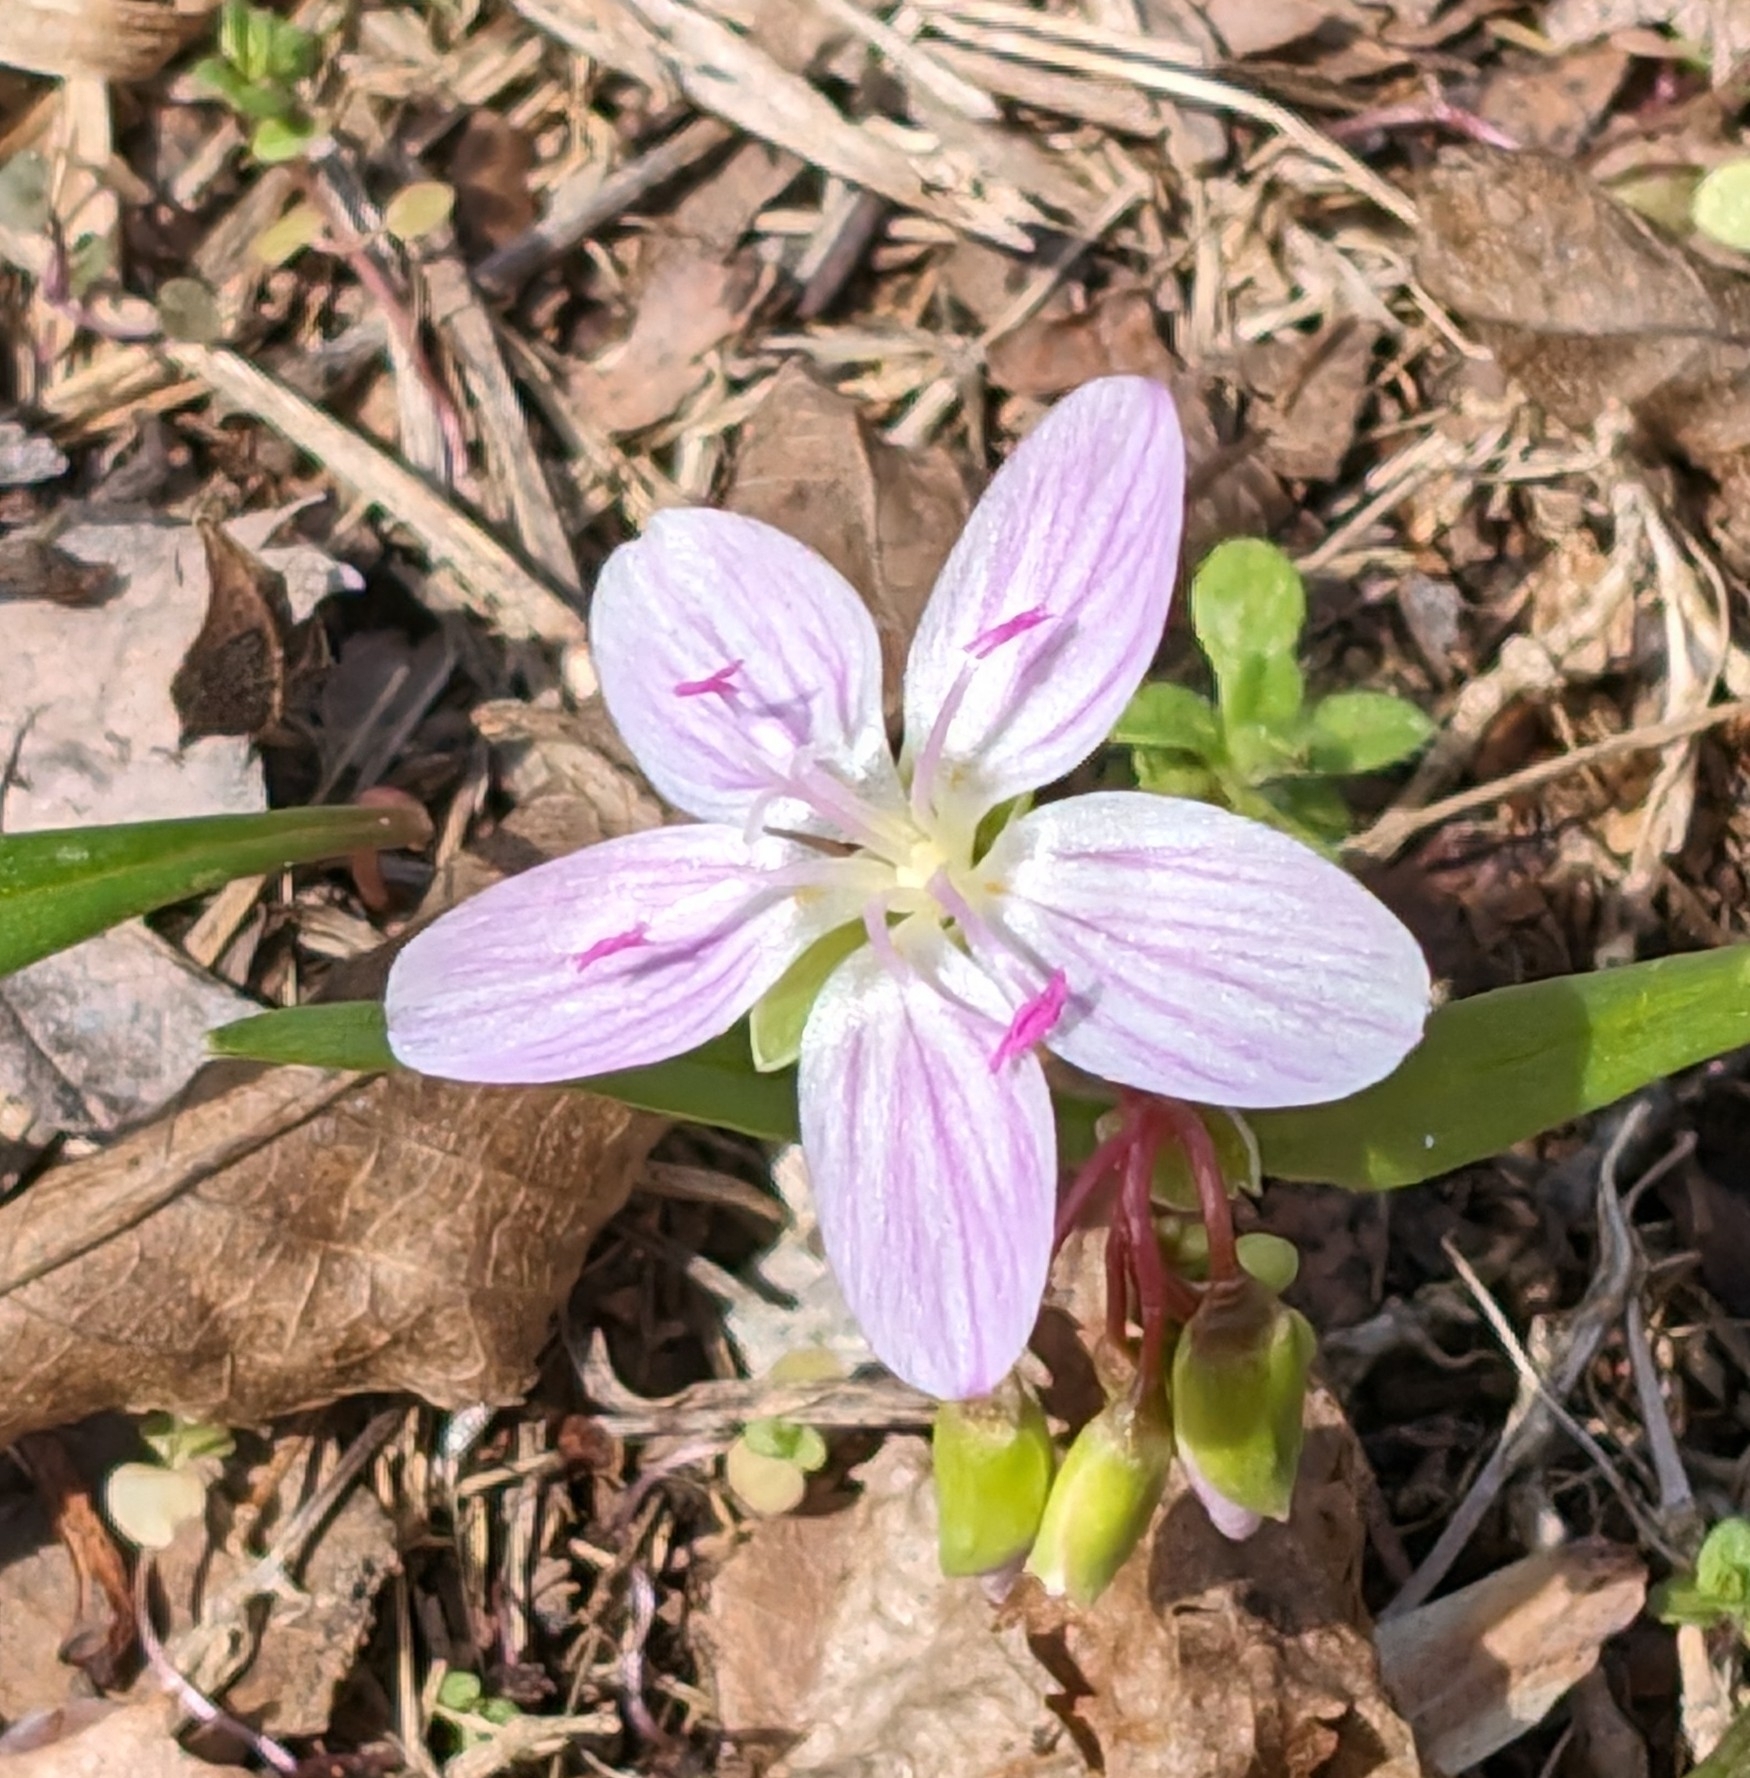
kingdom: Plantae
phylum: Tracheophyta
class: Magnoliopsida
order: Caryophyllales
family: Montiaceae
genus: Claytonia
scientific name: Claytonia virginica
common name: Virginia springbeauty
